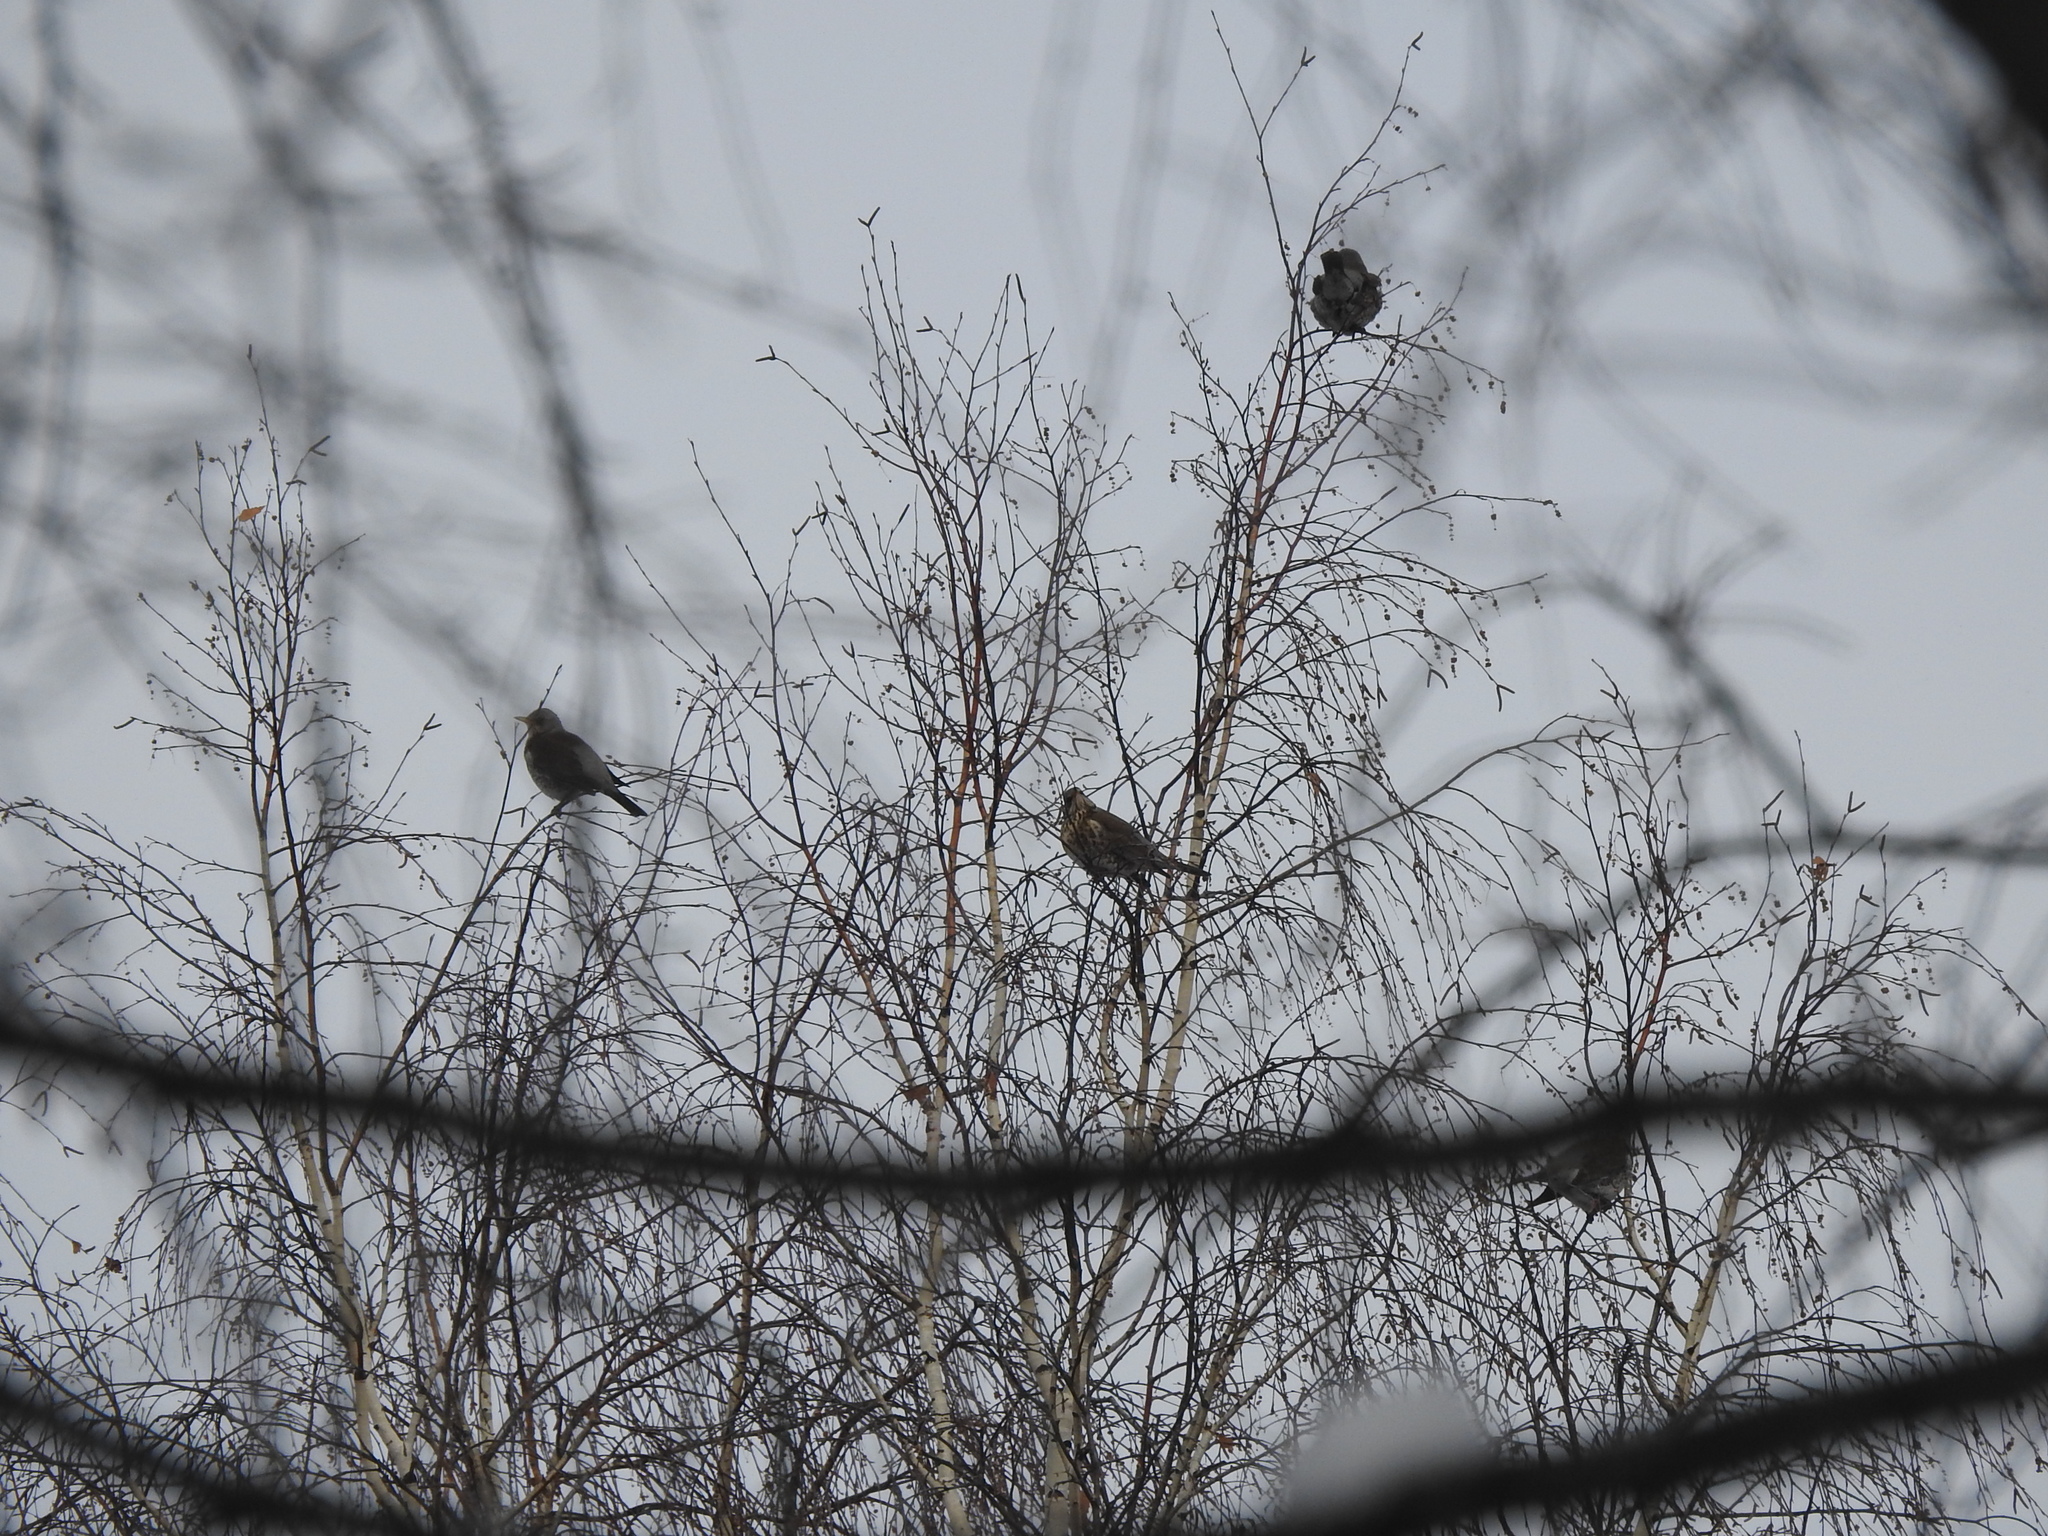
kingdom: Animalia
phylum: Chordata
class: Aves
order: Passeriformes
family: Turdidae
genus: Turdus
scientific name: Turdus pilaris
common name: Fieldfare
